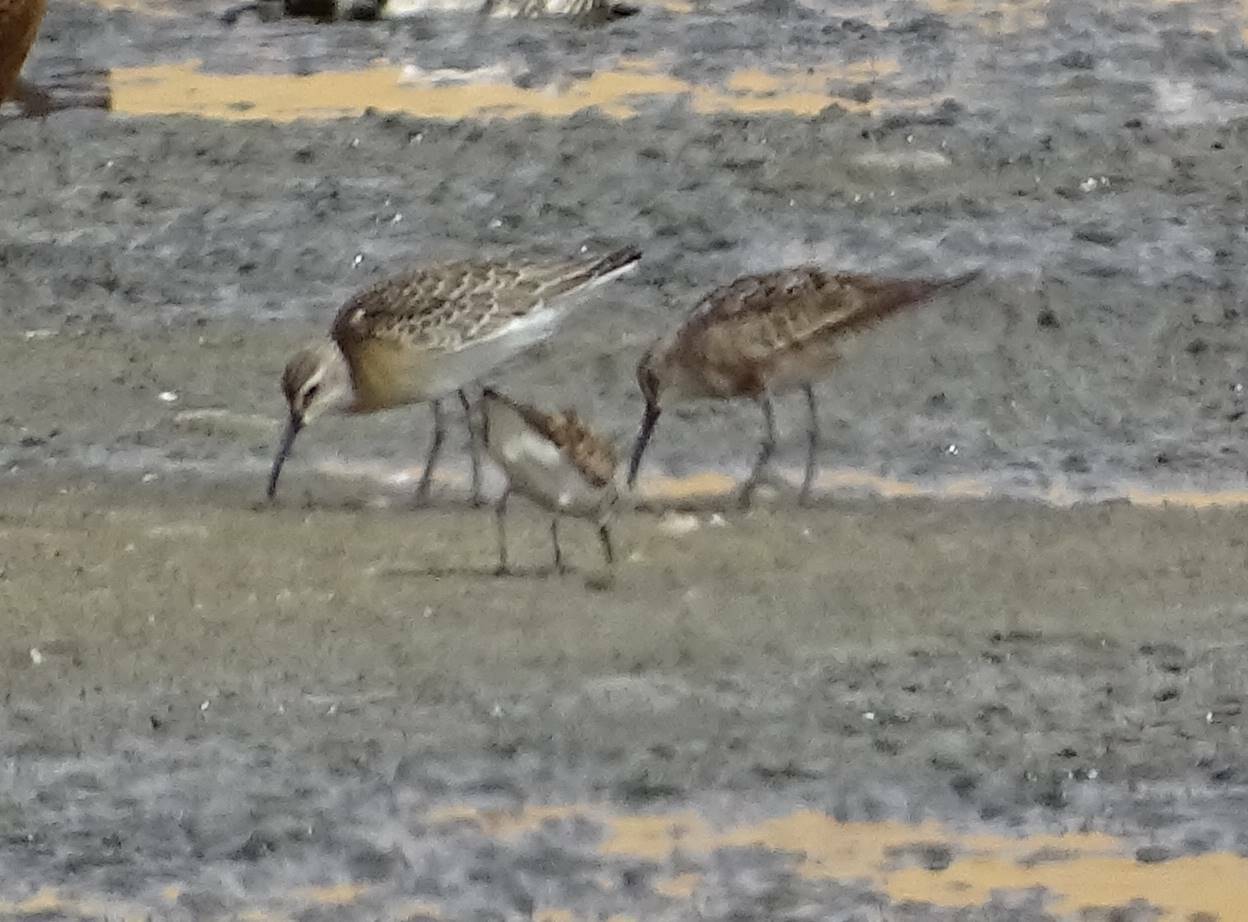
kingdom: Animalia
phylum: Chordata
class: Aves
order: Charadriiformes
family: Scolopacidae
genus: Calidris
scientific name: Calidris ferruginea
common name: Curlew sandpiper
